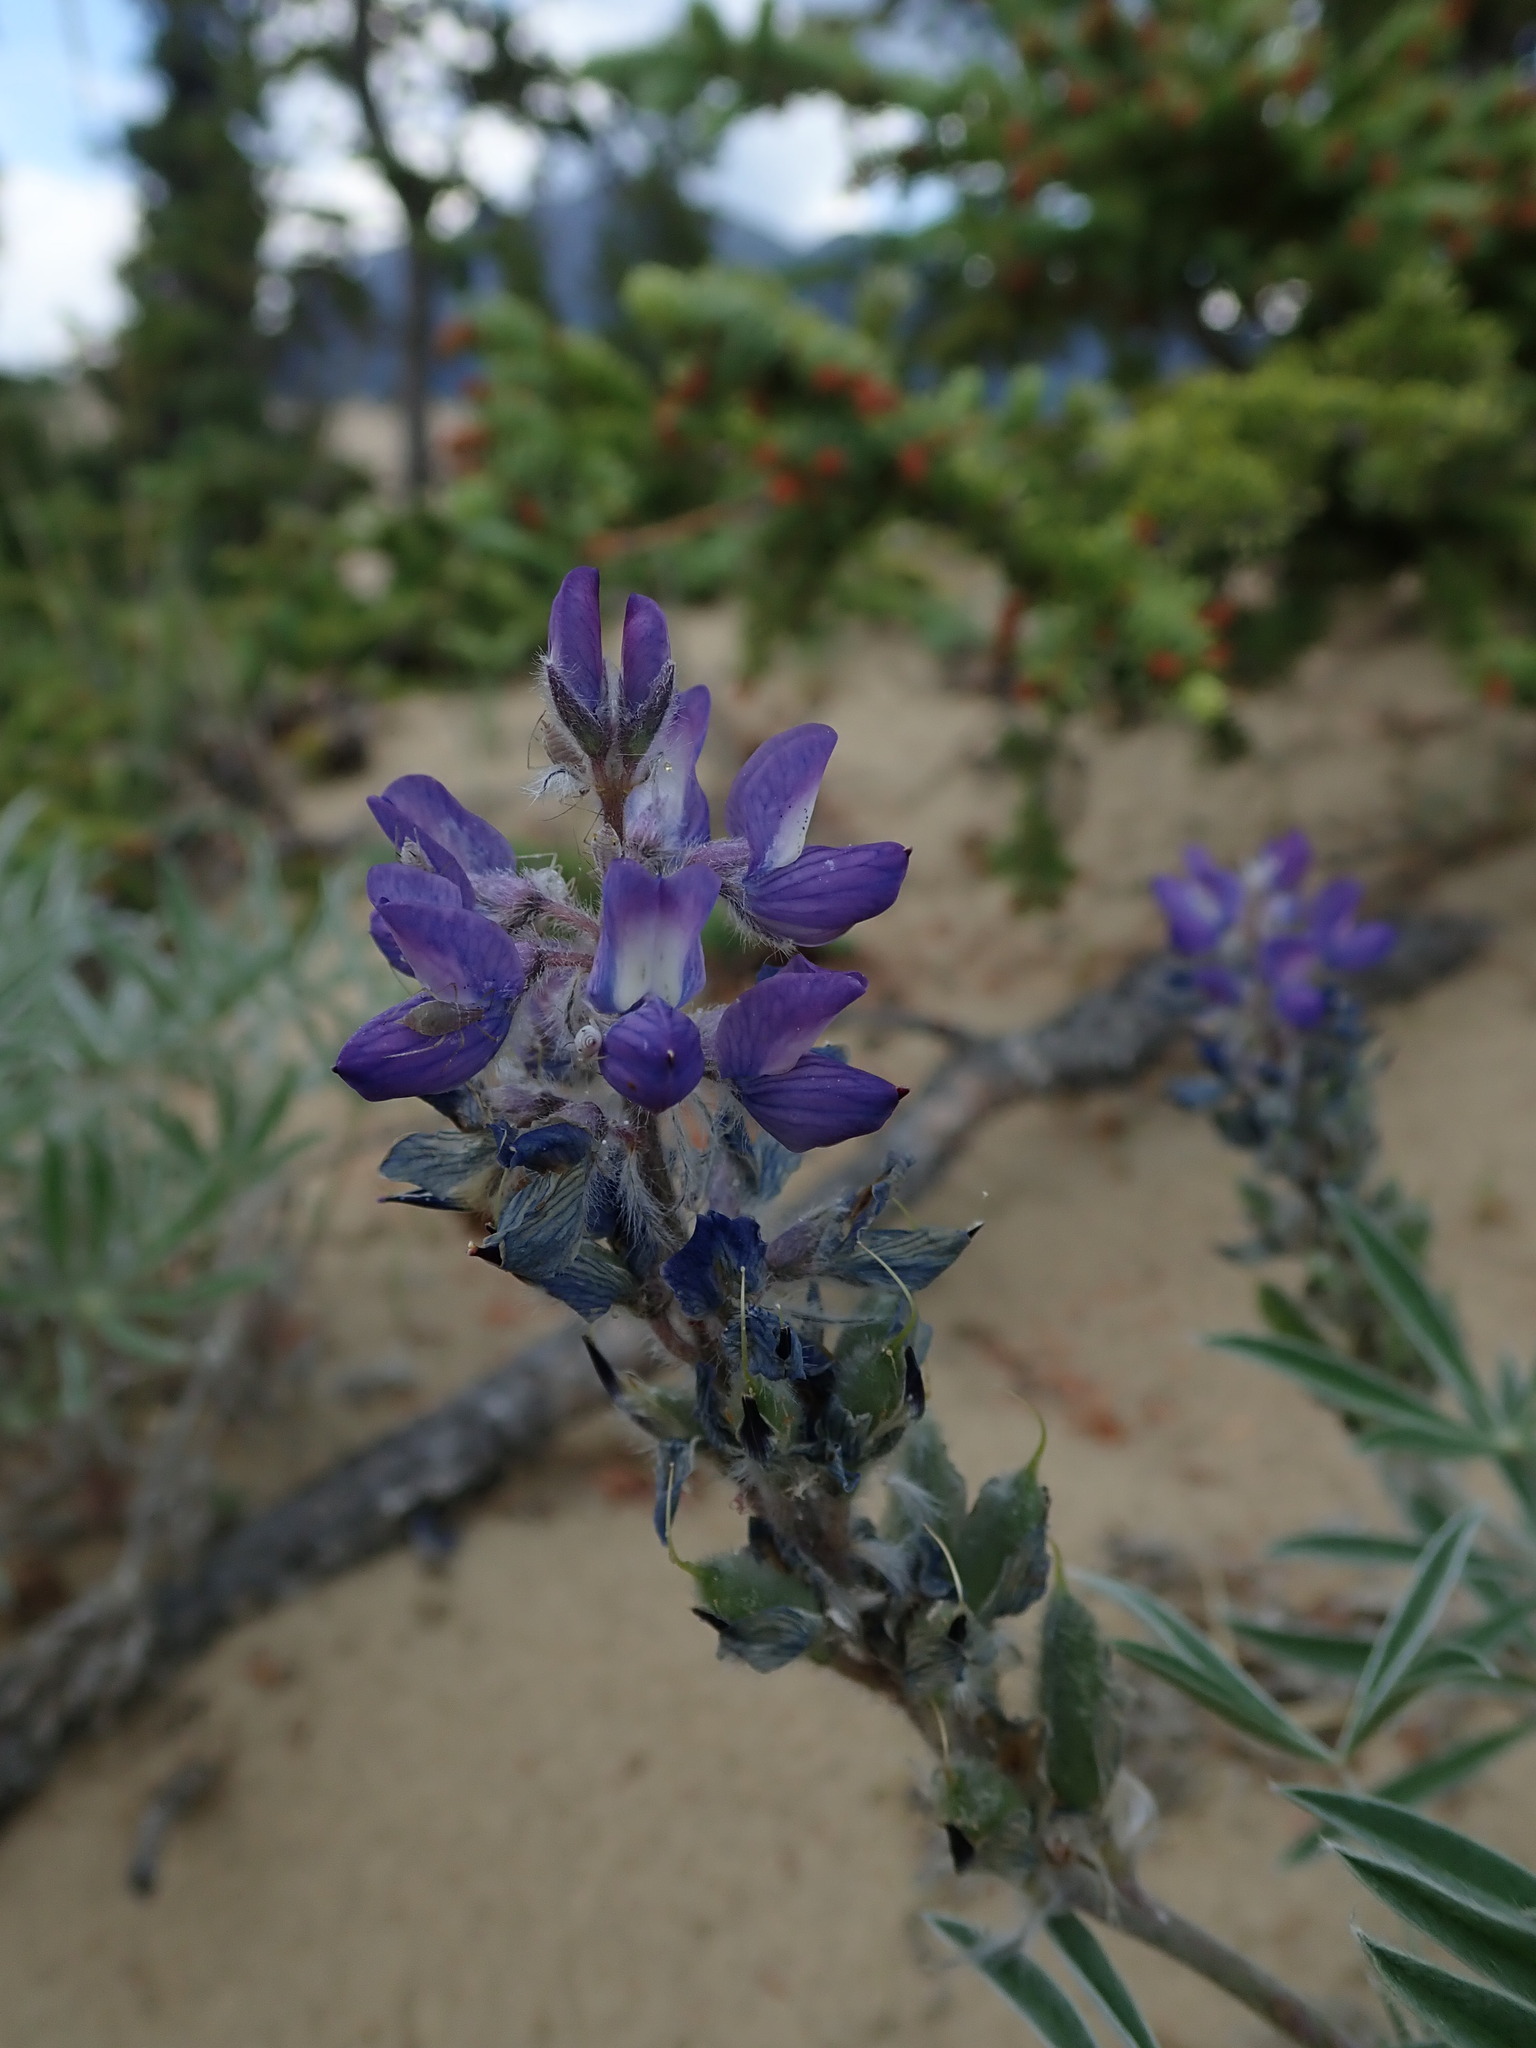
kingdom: Plantae
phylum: Tracheophyta
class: Magnoliopsida
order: Fabales
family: Fabaceae
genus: Lupinus
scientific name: Lupinus kuschei
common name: Kusche's lupine
